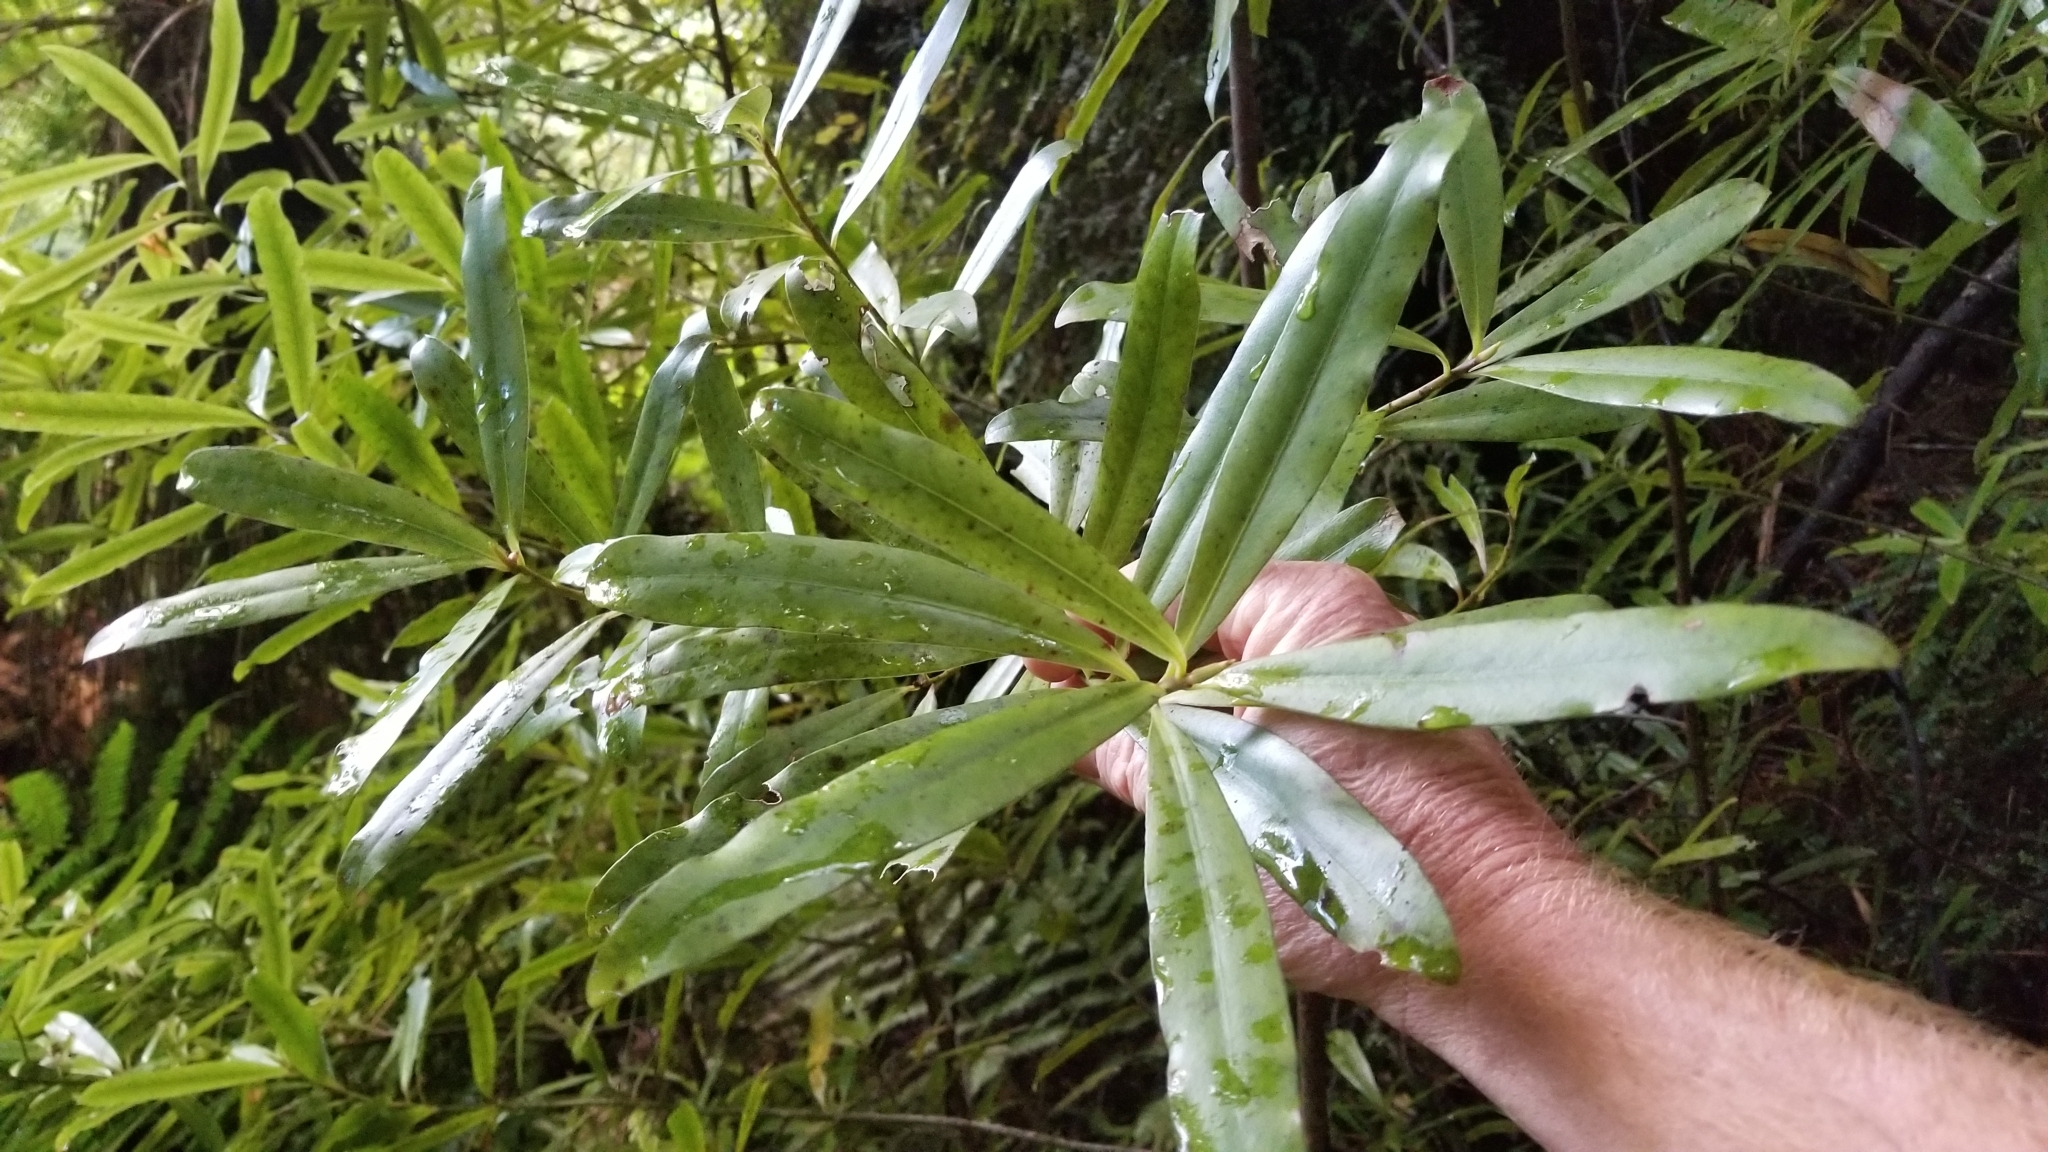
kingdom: Plantae
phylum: Tracheophyta
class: Magnoliopsida
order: Ericales
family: Primulaceae
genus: Myrsine
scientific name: Myrsine salicina
